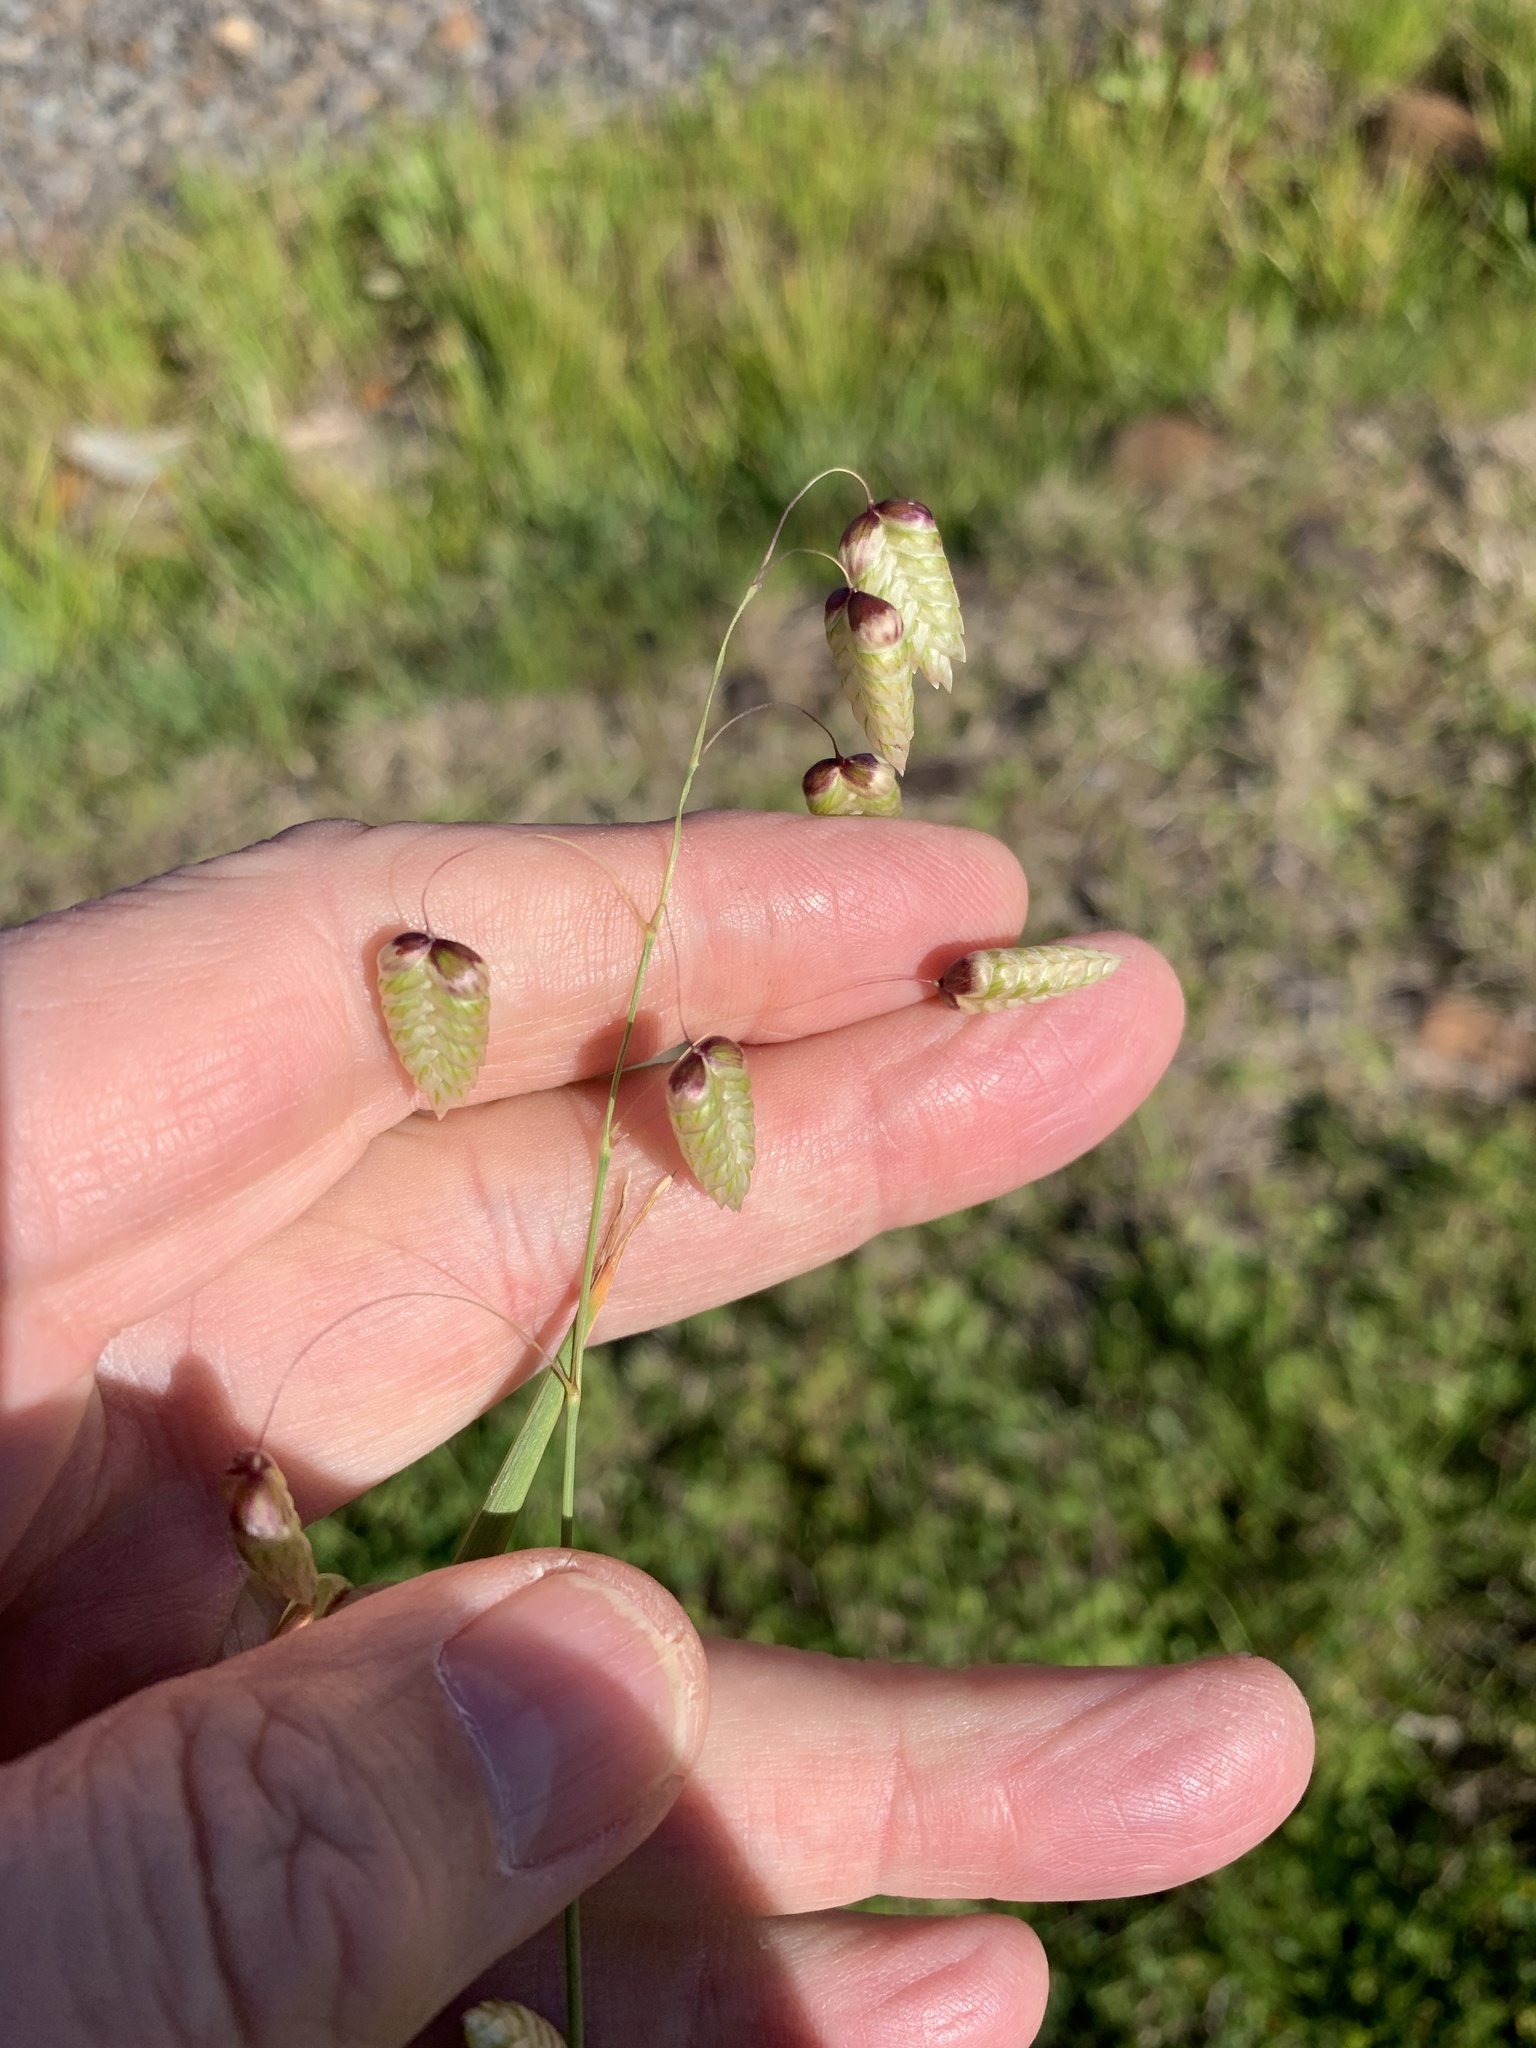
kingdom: Plantae
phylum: Tracheophyta
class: Liliopsida
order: Poales
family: Poaceae
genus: Briza
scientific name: Briza maxima
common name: Big quakinggrass
